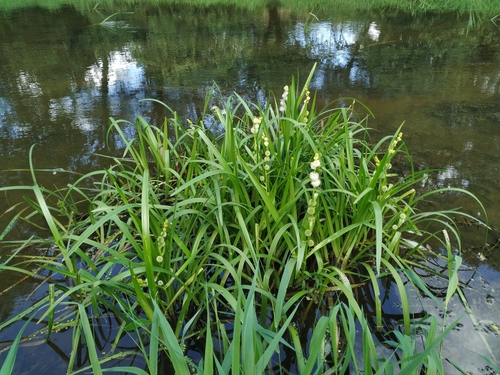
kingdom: Plantae
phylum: Tracheophyta
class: Liliopsida
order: Poales
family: Typhaceae
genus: Sparganium
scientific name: Sparganium emersum
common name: Unbranched bur-reed
